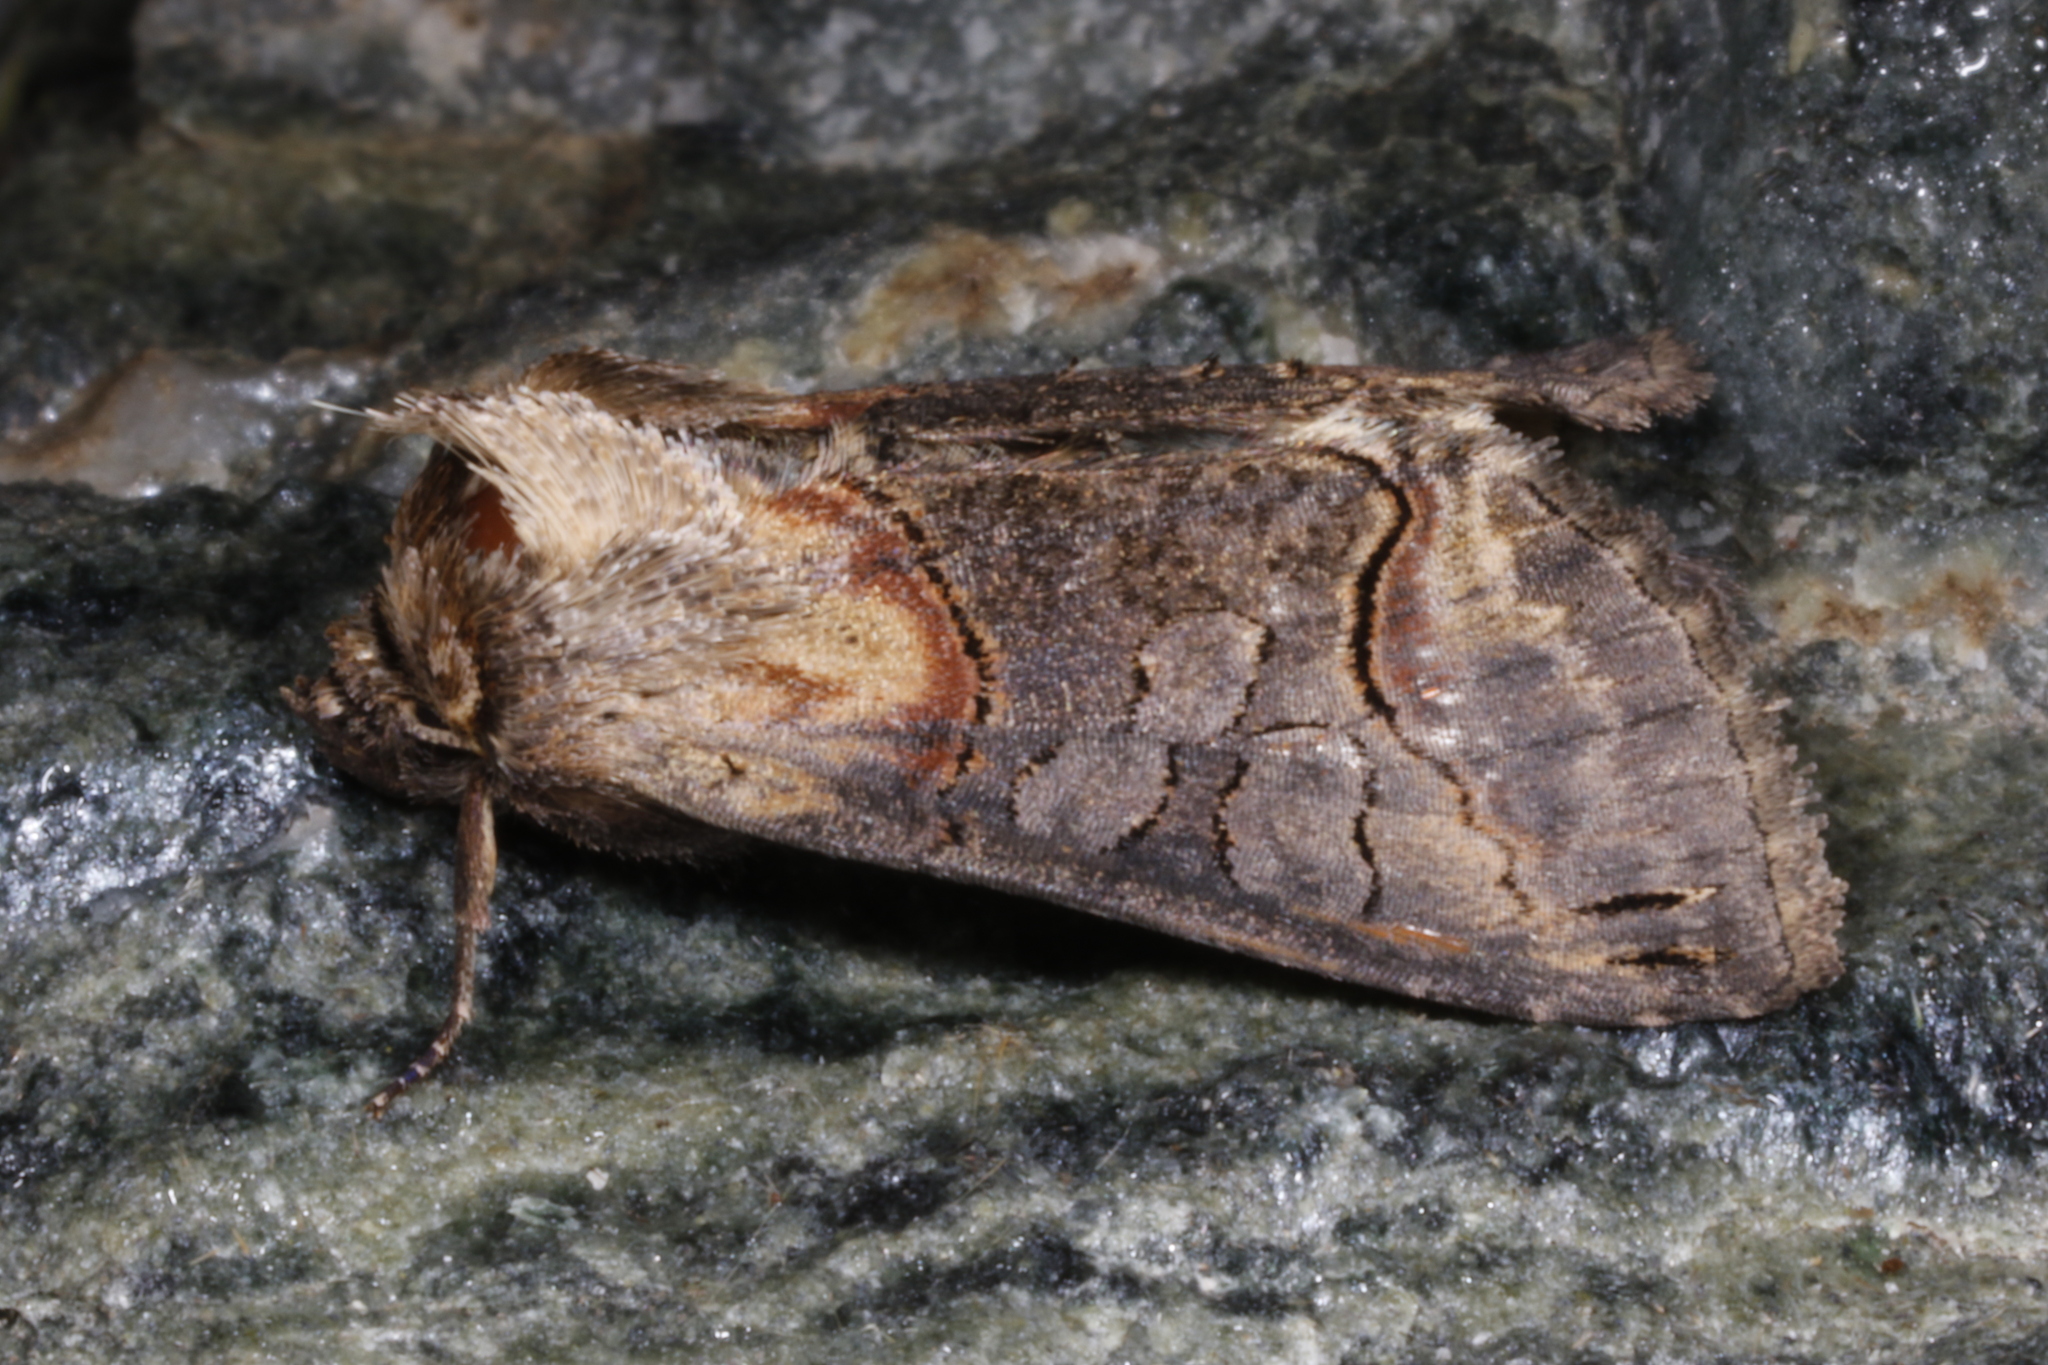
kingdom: Animalia
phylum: Arthropoda
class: Insecta
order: Lepidoptera
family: Noctuidae
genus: Abrostola
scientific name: Abrostola triplasia
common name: Dark spectacle
